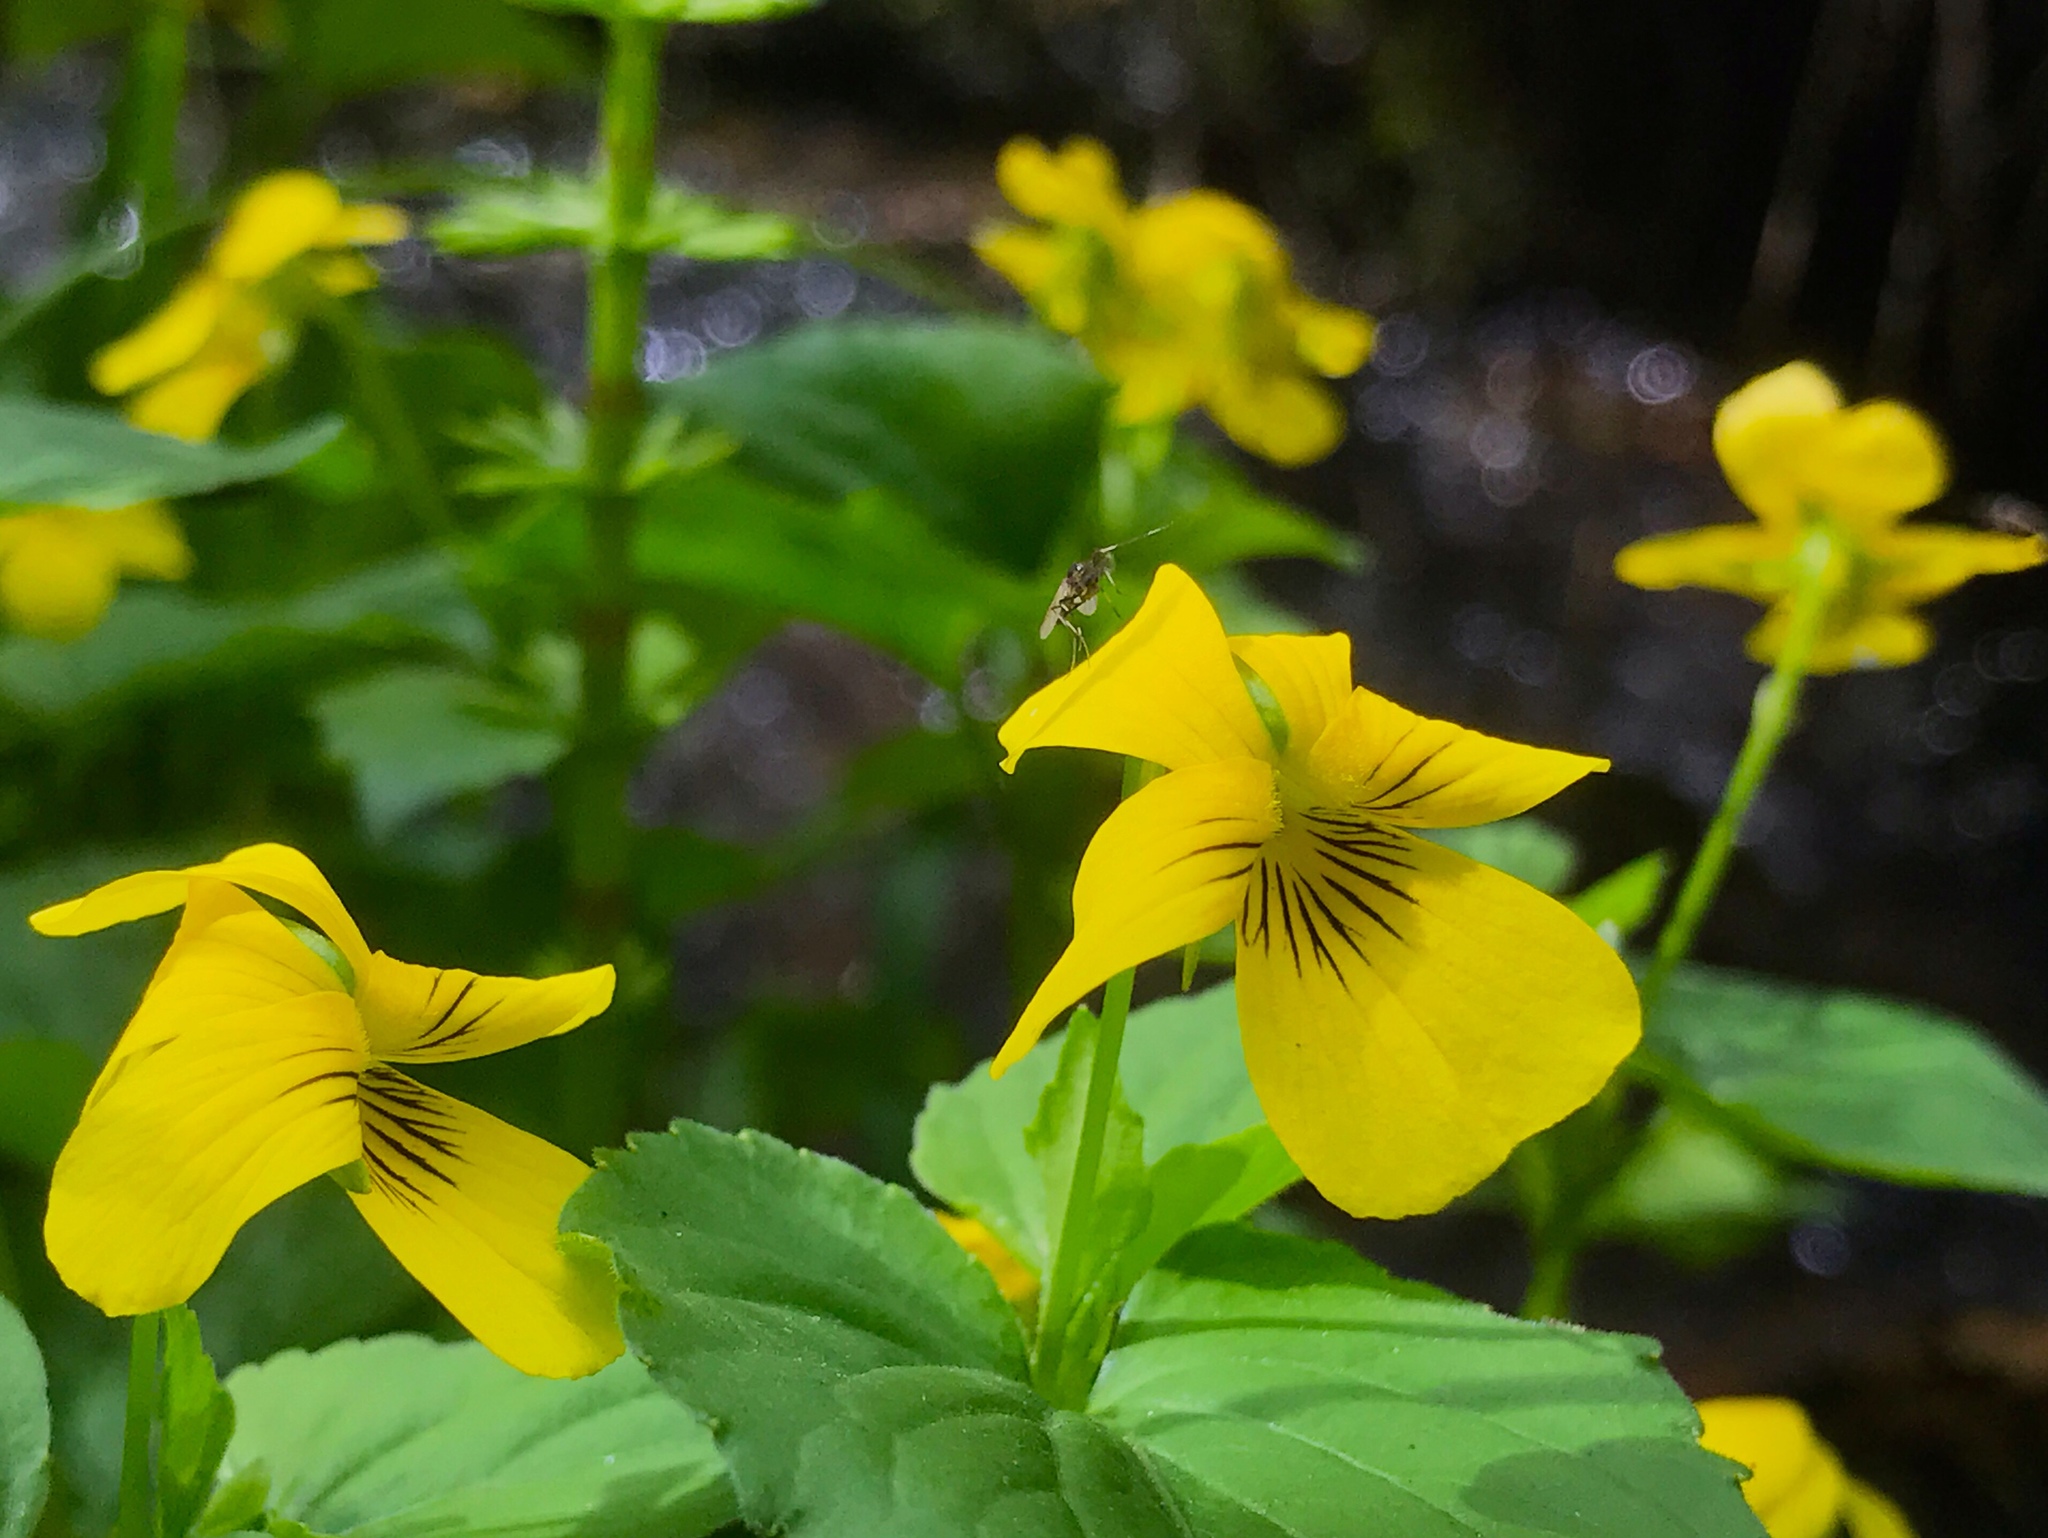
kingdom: Plantae
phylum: Tracheophyta
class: Magnoliopsida
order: Malpighiales
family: Violaceae
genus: Viola
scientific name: Viola glabella
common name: Stream violet
